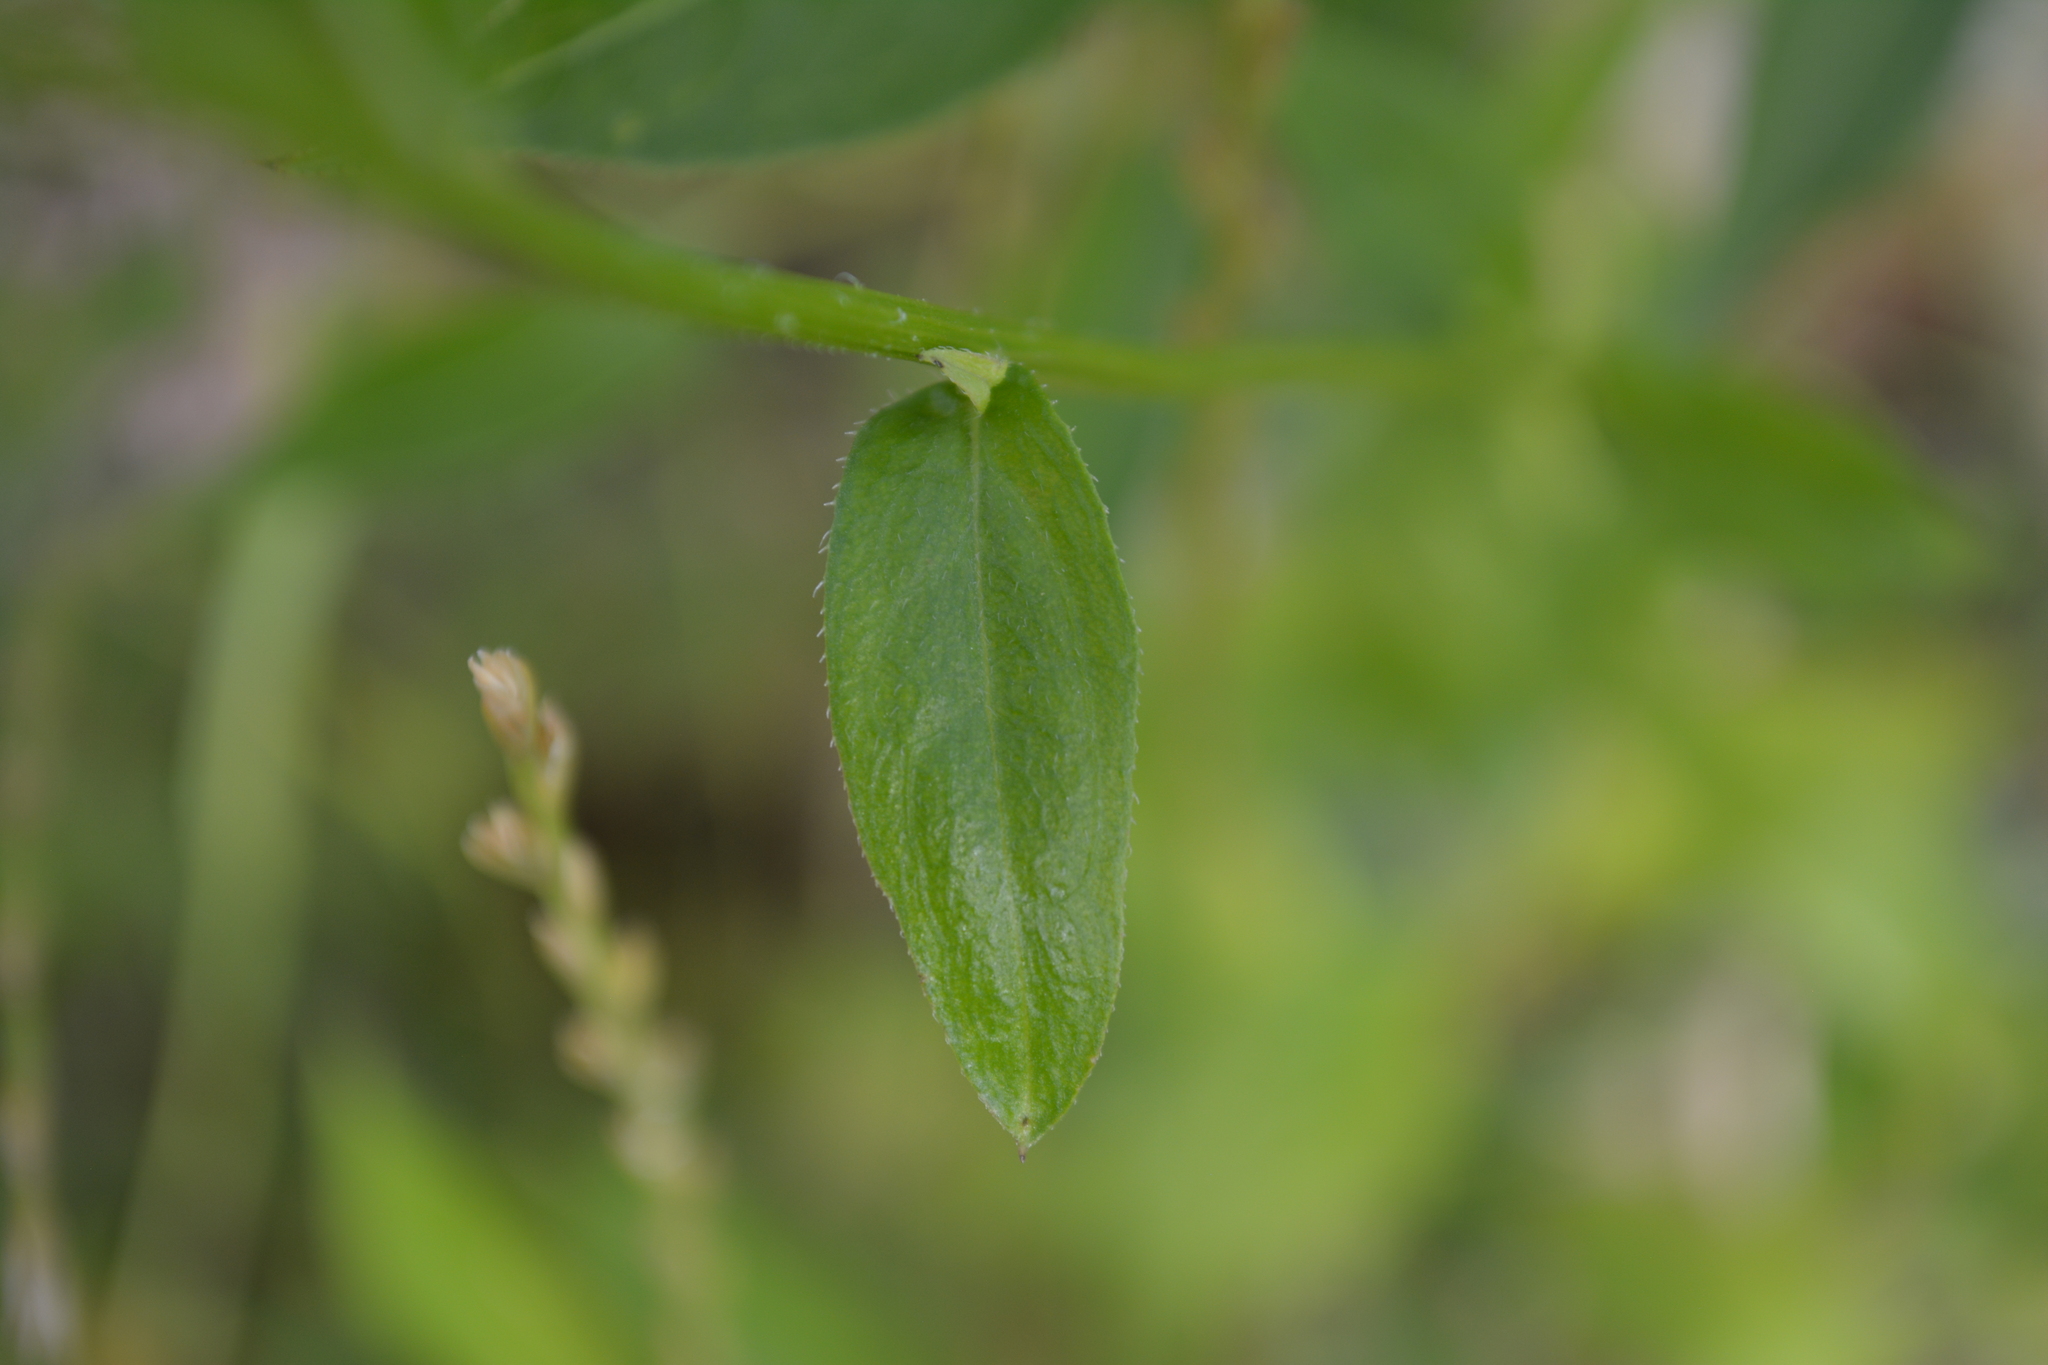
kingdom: Plantae
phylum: Tracheophyta
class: Magnoliopsida
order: Asterales
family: Asteraceae
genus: Erigeron
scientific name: Erigeron annuus
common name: Tall fleabane
